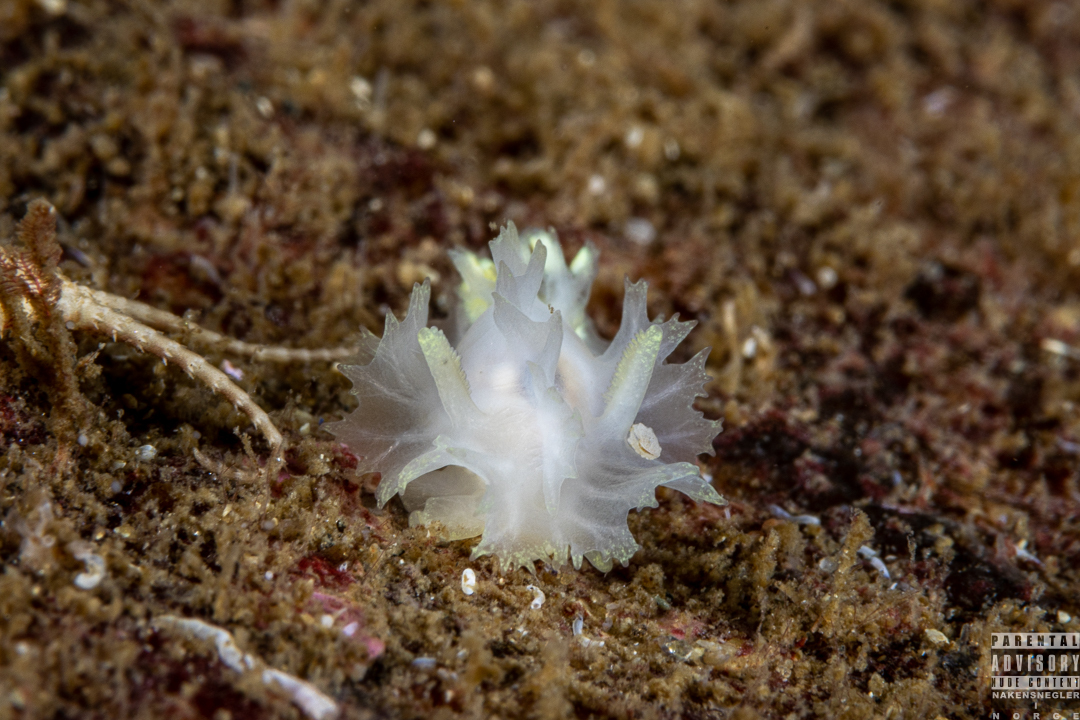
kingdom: Animalia
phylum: Mollusca
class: Gastropoda
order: Nudibranchia
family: Goniodorididae
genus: Lophodoris
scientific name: Lophodoris danielsseni
